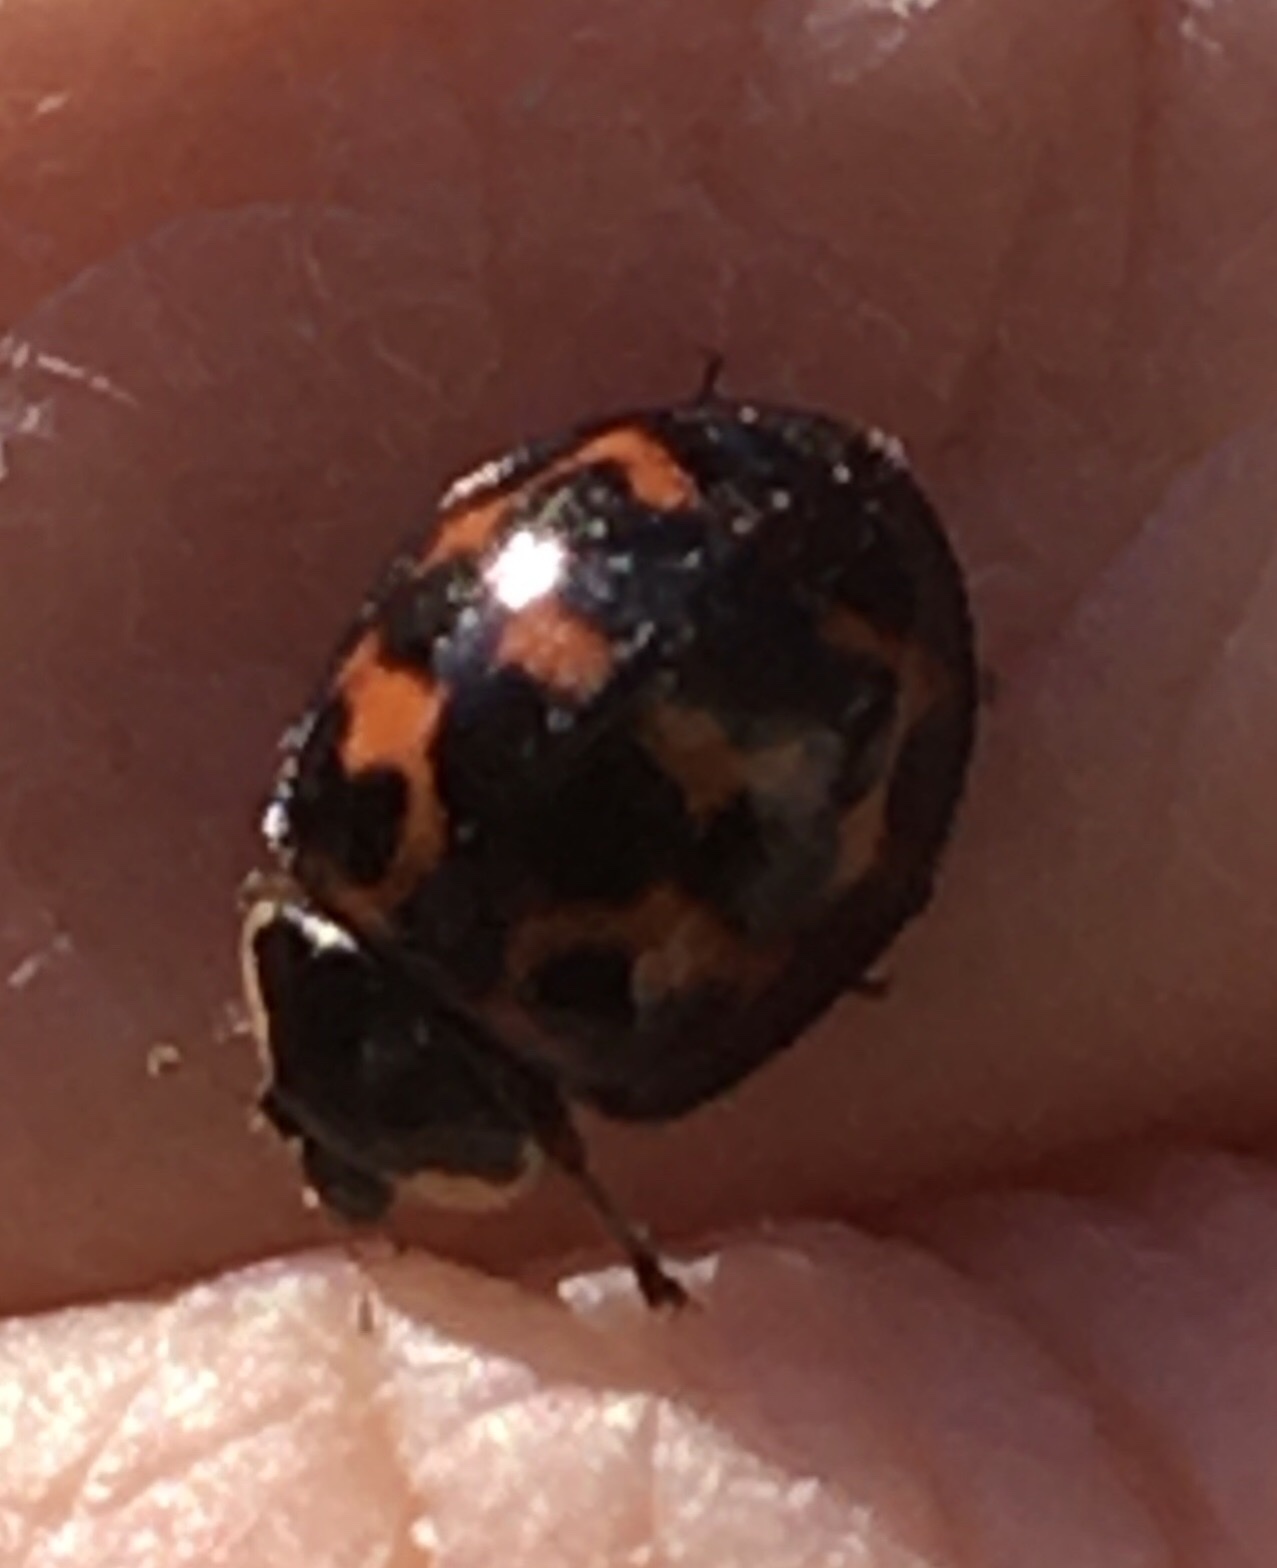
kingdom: Animalia
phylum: Arthropoda
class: Insecta
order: Coleoptera
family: Coccinellidae
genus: Harmonia
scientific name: Harmonia axyridis
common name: Harlequin ladybird
